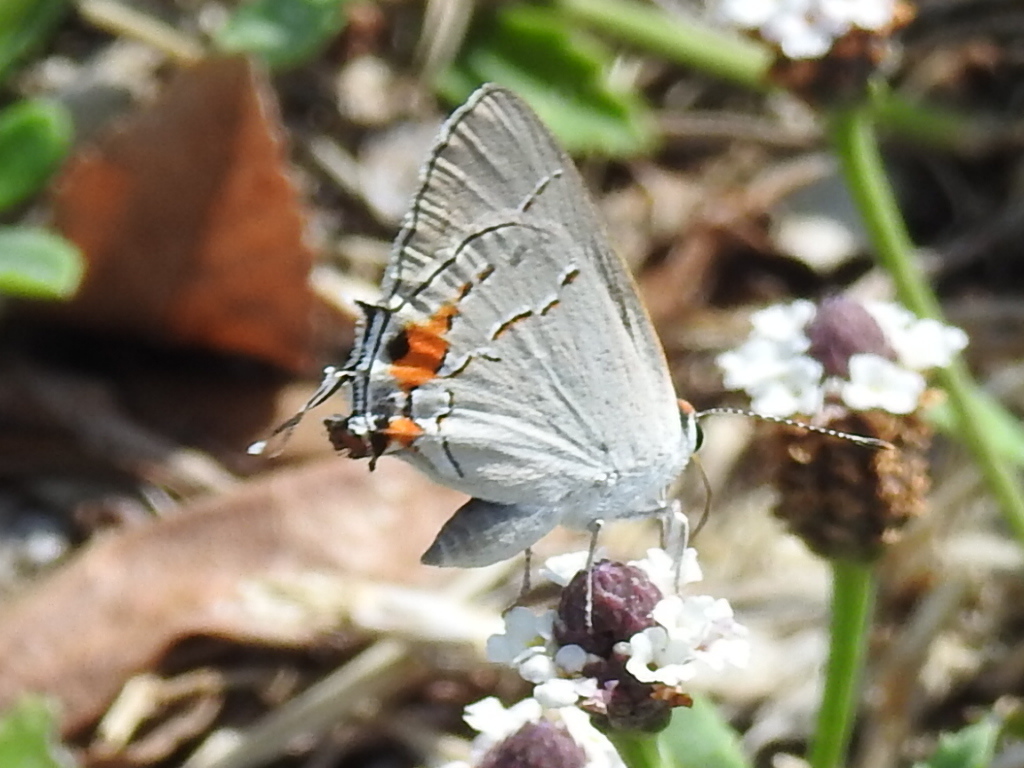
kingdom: Animalia
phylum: Arthropoda
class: Insecta
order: Lepidoptera
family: Lycaenidae
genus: Strymon
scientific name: Strymon melinus
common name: Gray hairstreak
